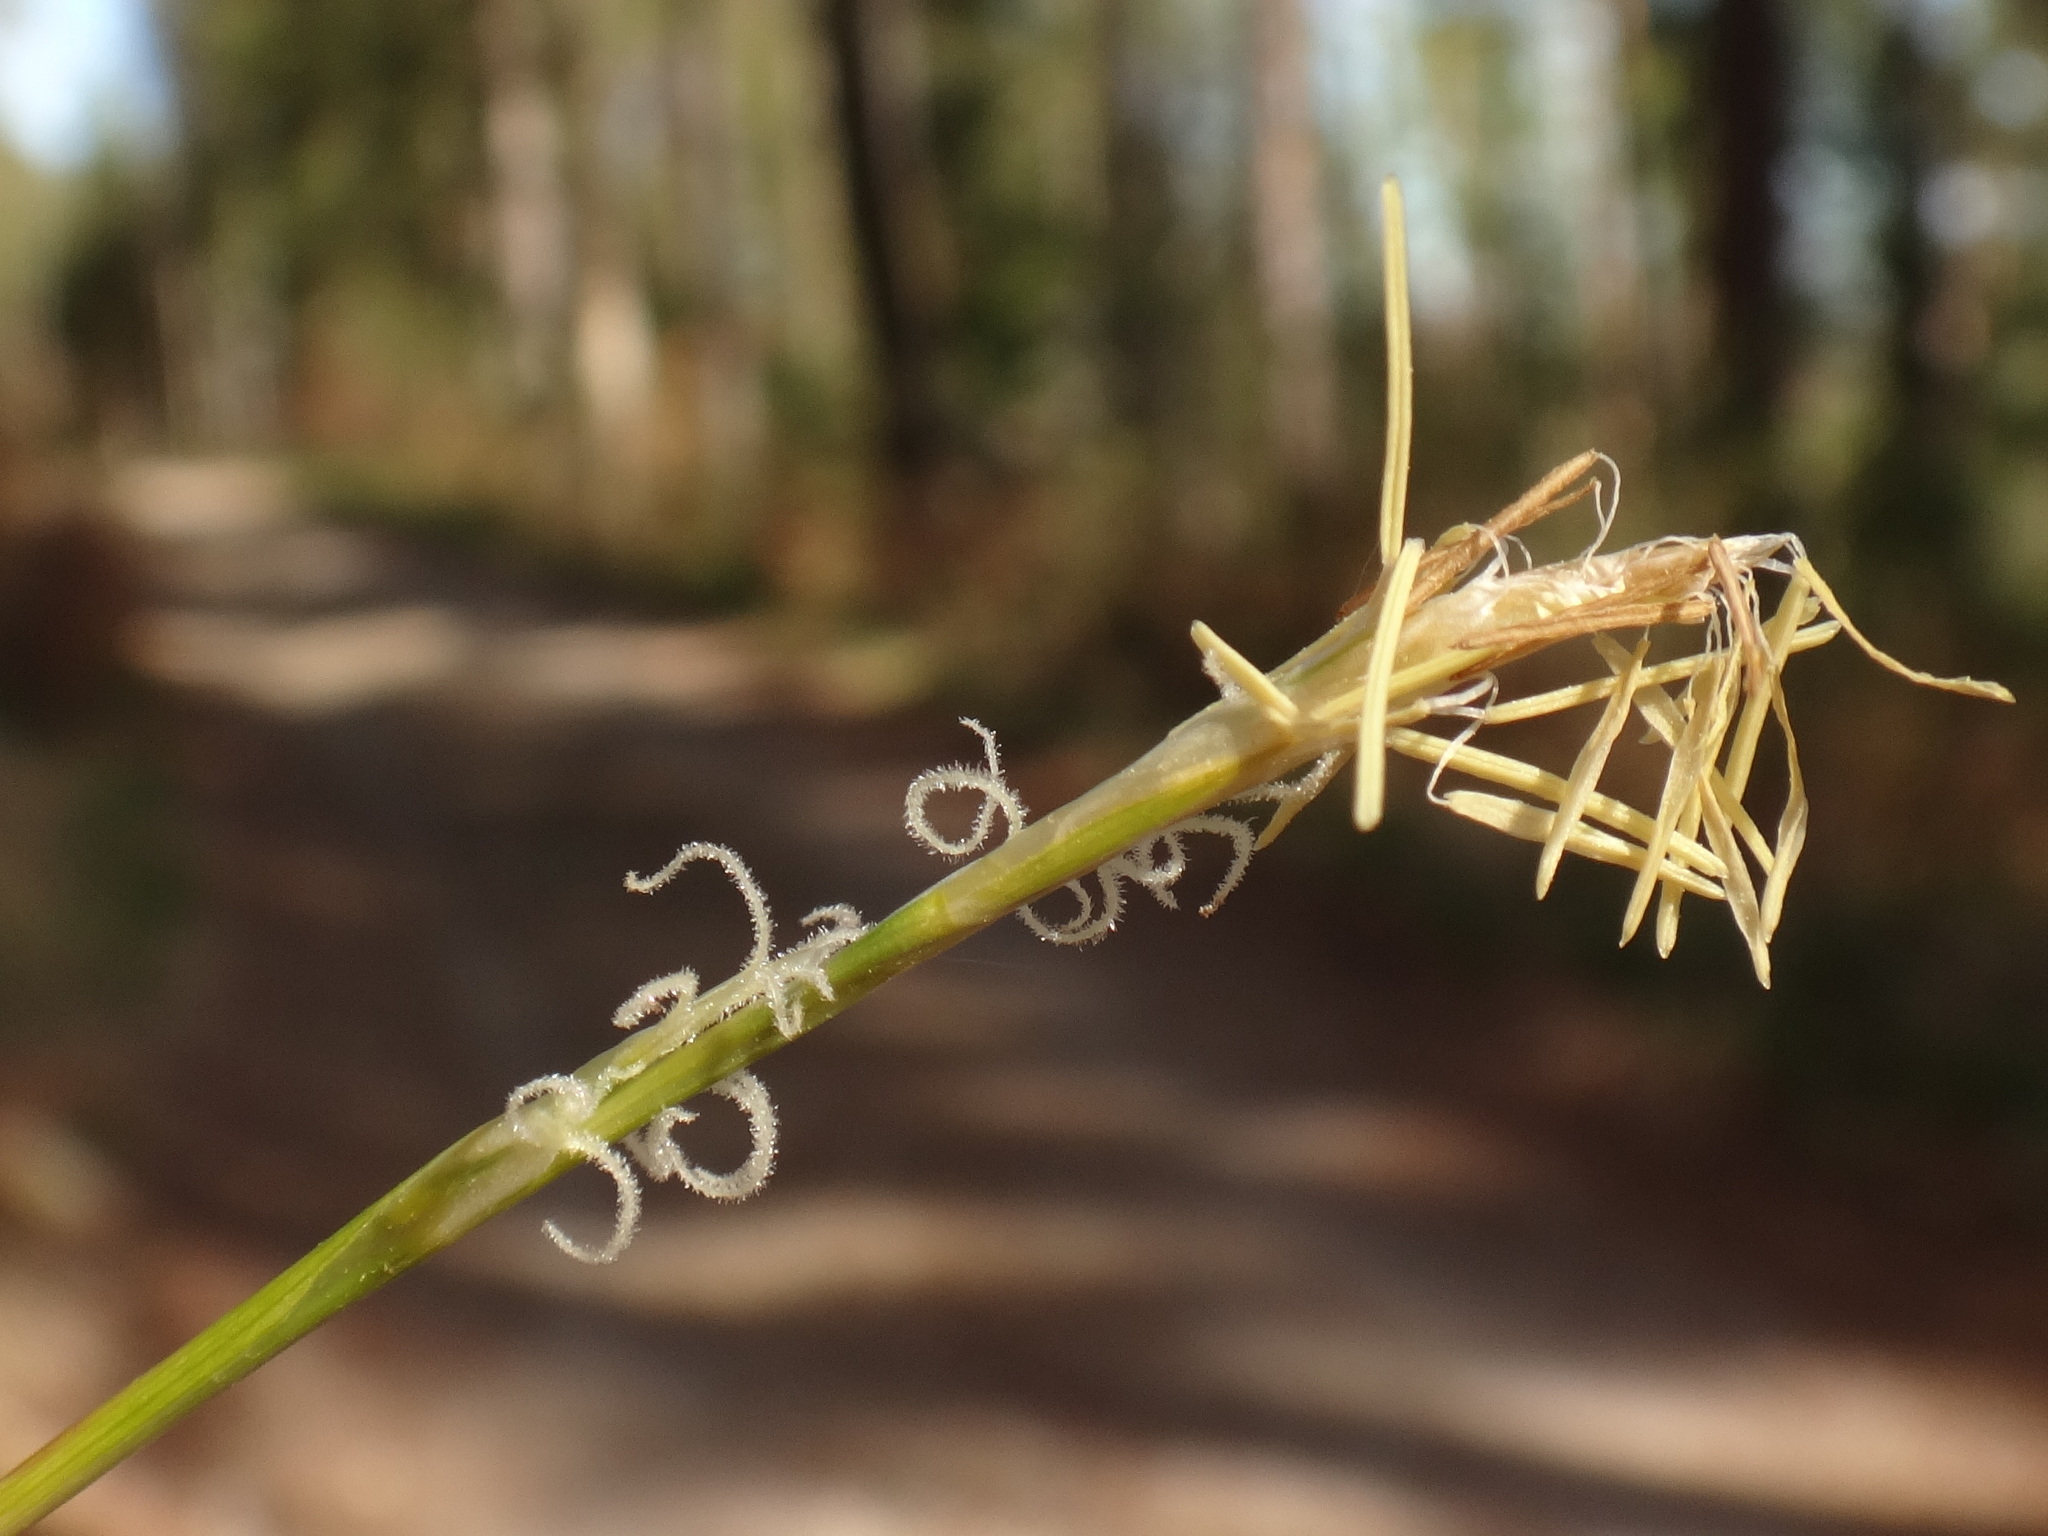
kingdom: Plantae
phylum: Tracheophyta
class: Liliopsida
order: Poales
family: Cyperaceae
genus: Carex
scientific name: Carex alba
